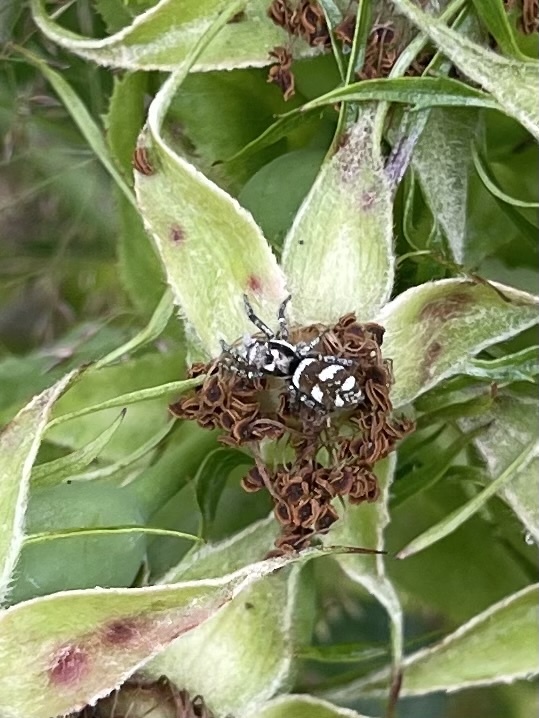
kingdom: Animalia
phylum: Arthropoda
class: Arachnida
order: Araneae
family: Salticidae
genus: Salticus
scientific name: Salticus scenicus
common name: Zebra jumper
